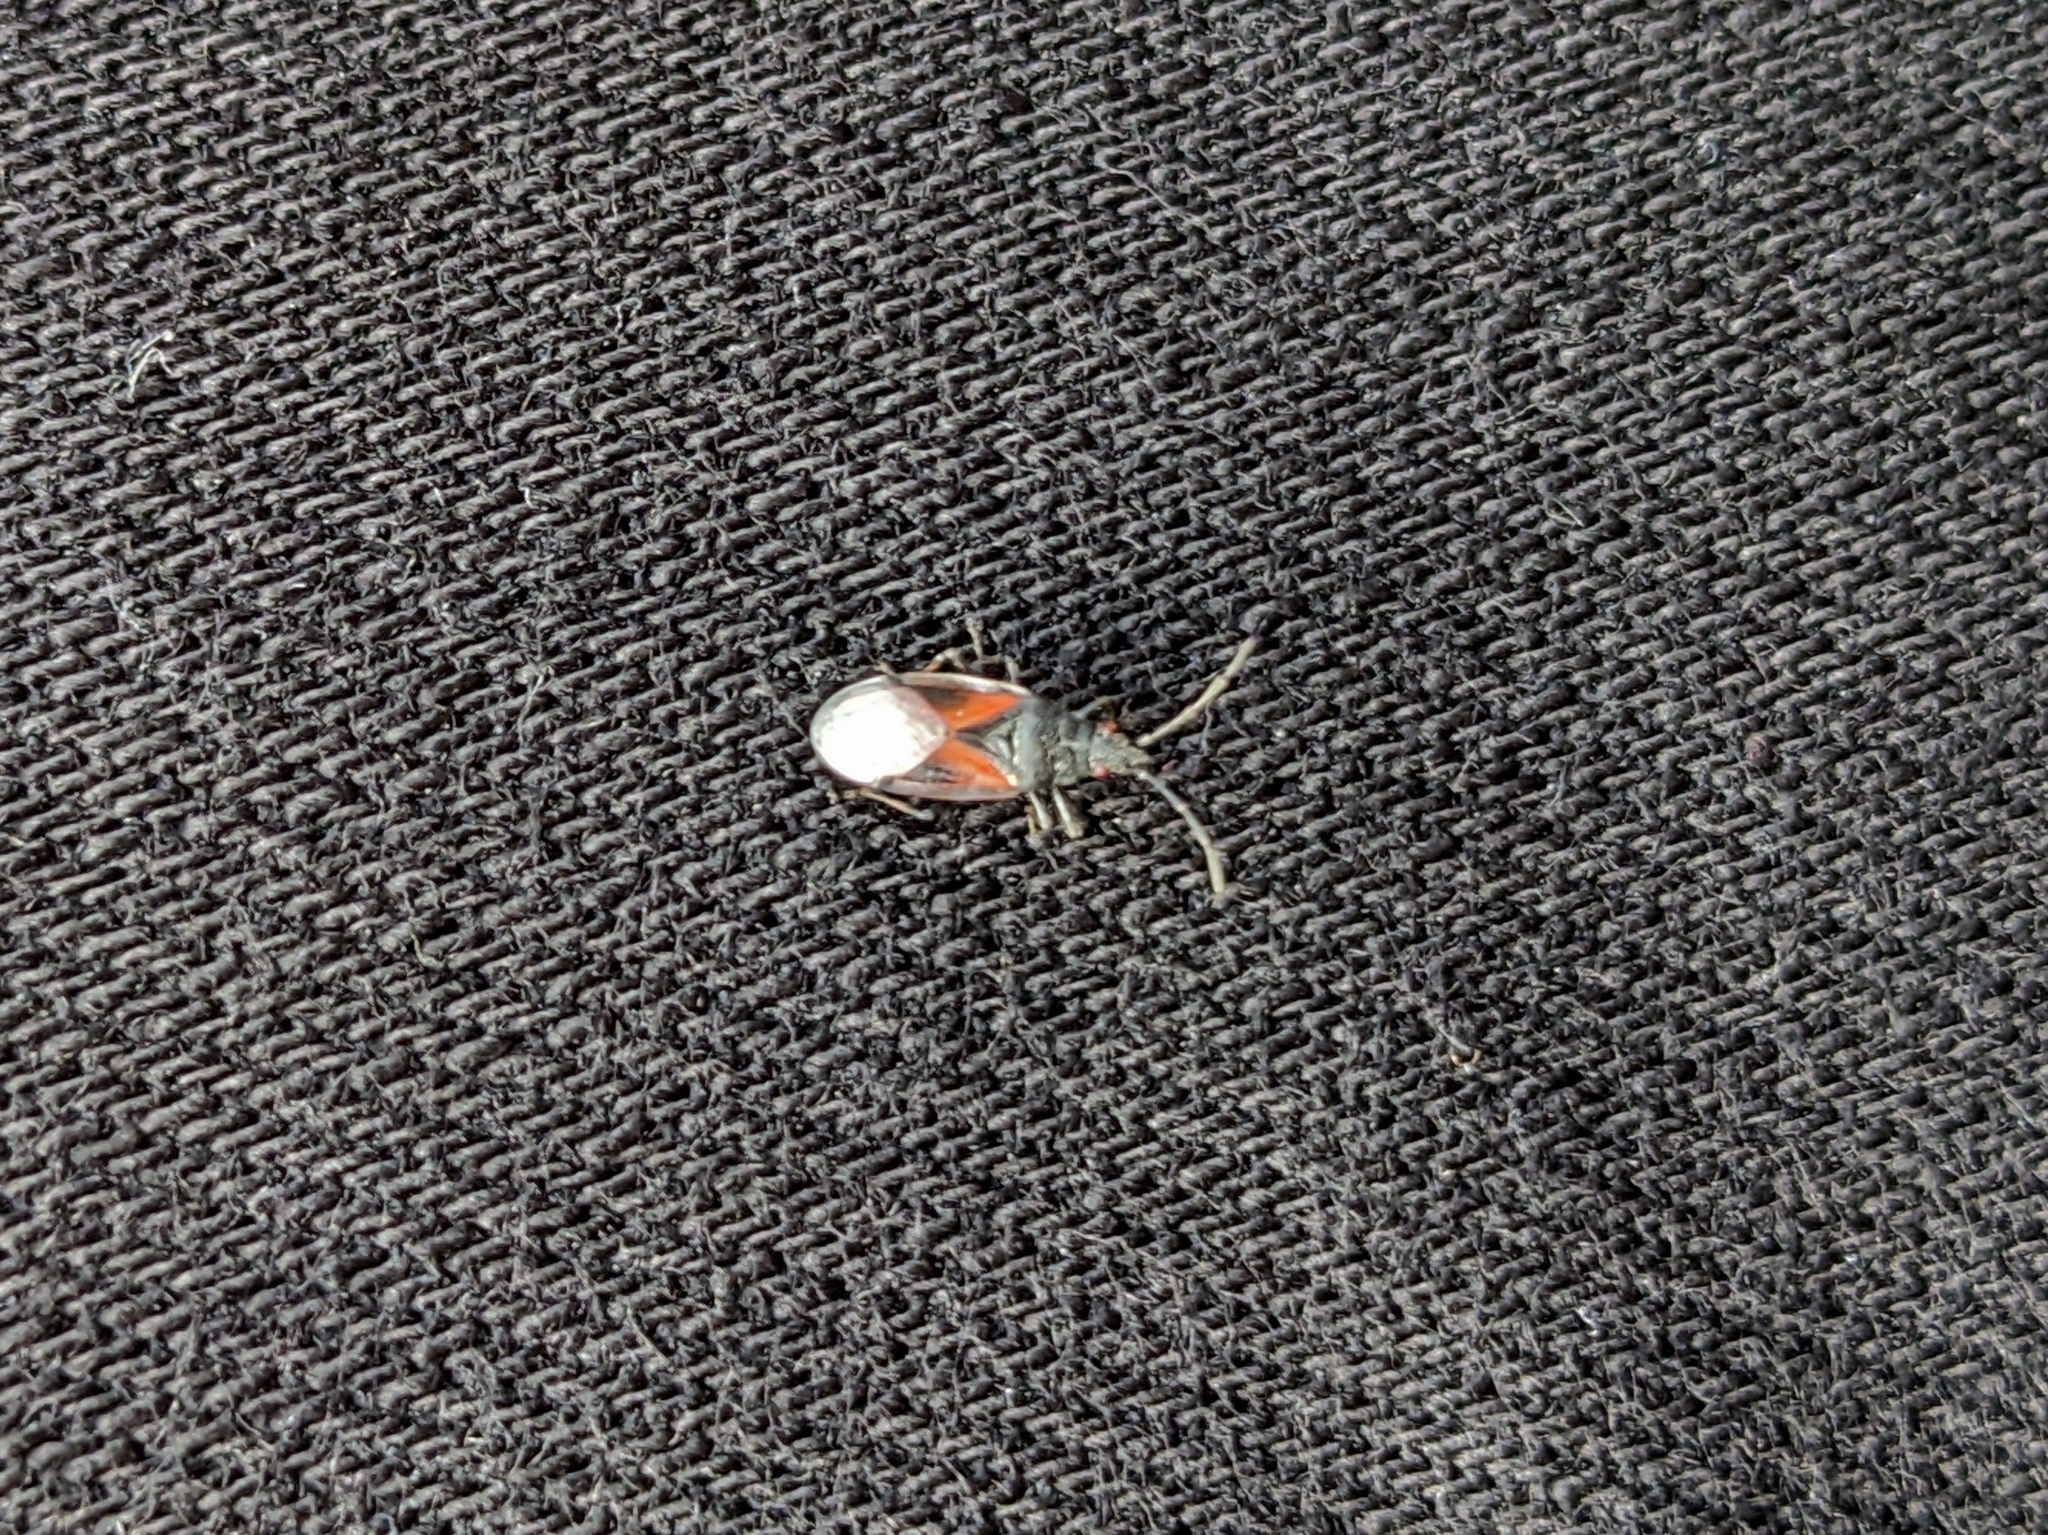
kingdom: Animalia
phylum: Arthropoda
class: Insecta
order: Hemiptera
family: Oxycarenidae
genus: Oxycarenus
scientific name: Oxycarenus lavaterae
